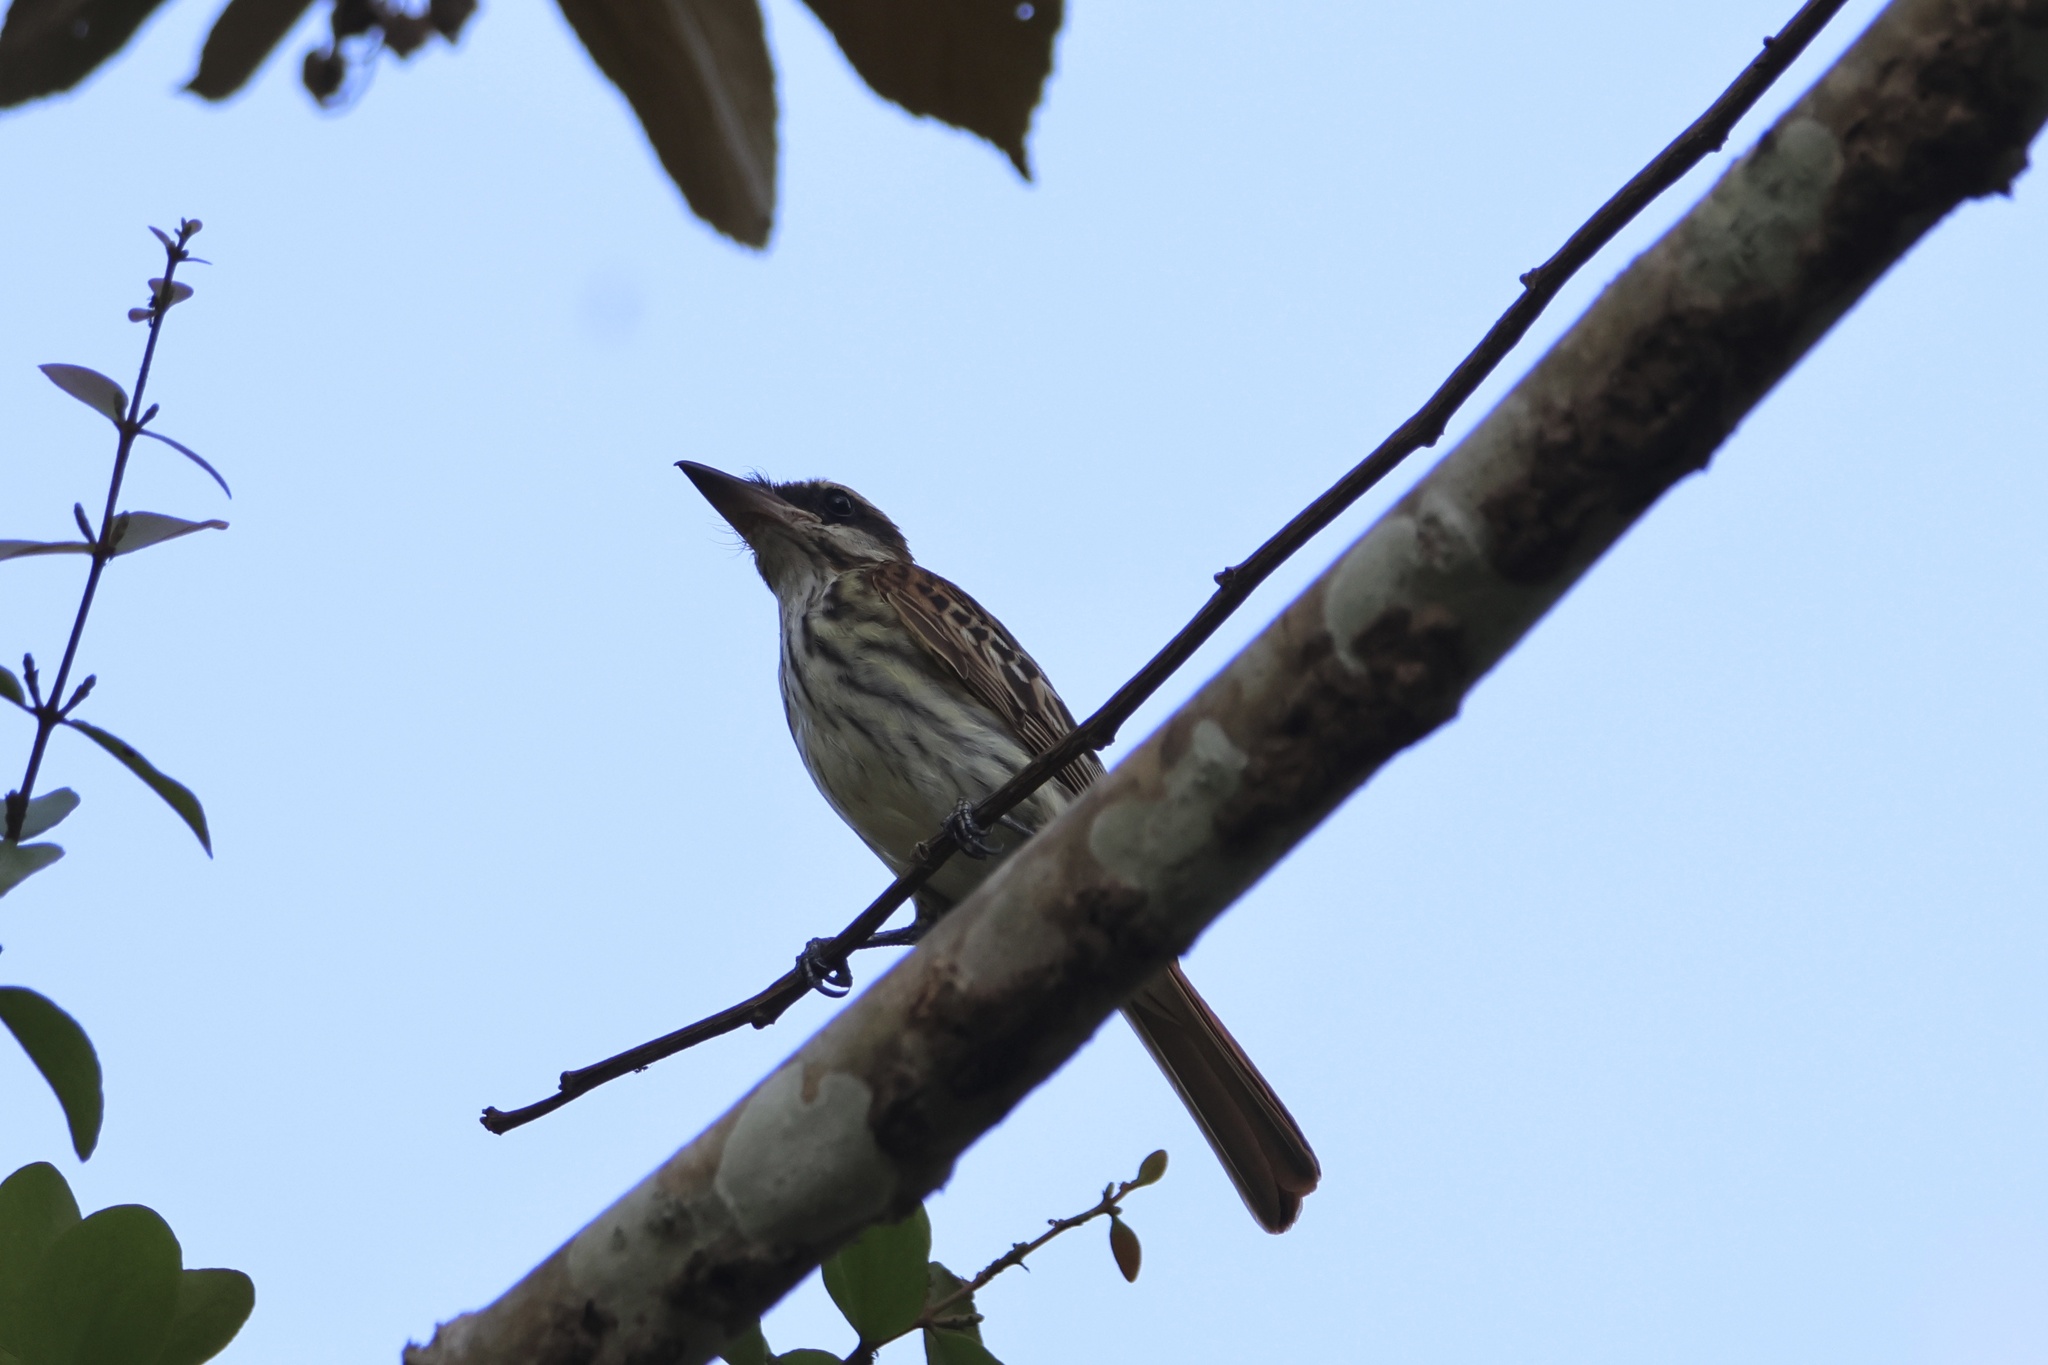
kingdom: Animalia
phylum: Chordata
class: Aves
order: Passeriformes
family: Tyrannidae
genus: Myiodynastes
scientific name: Myiodynastes maculatus
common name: Streaked flycatcher
